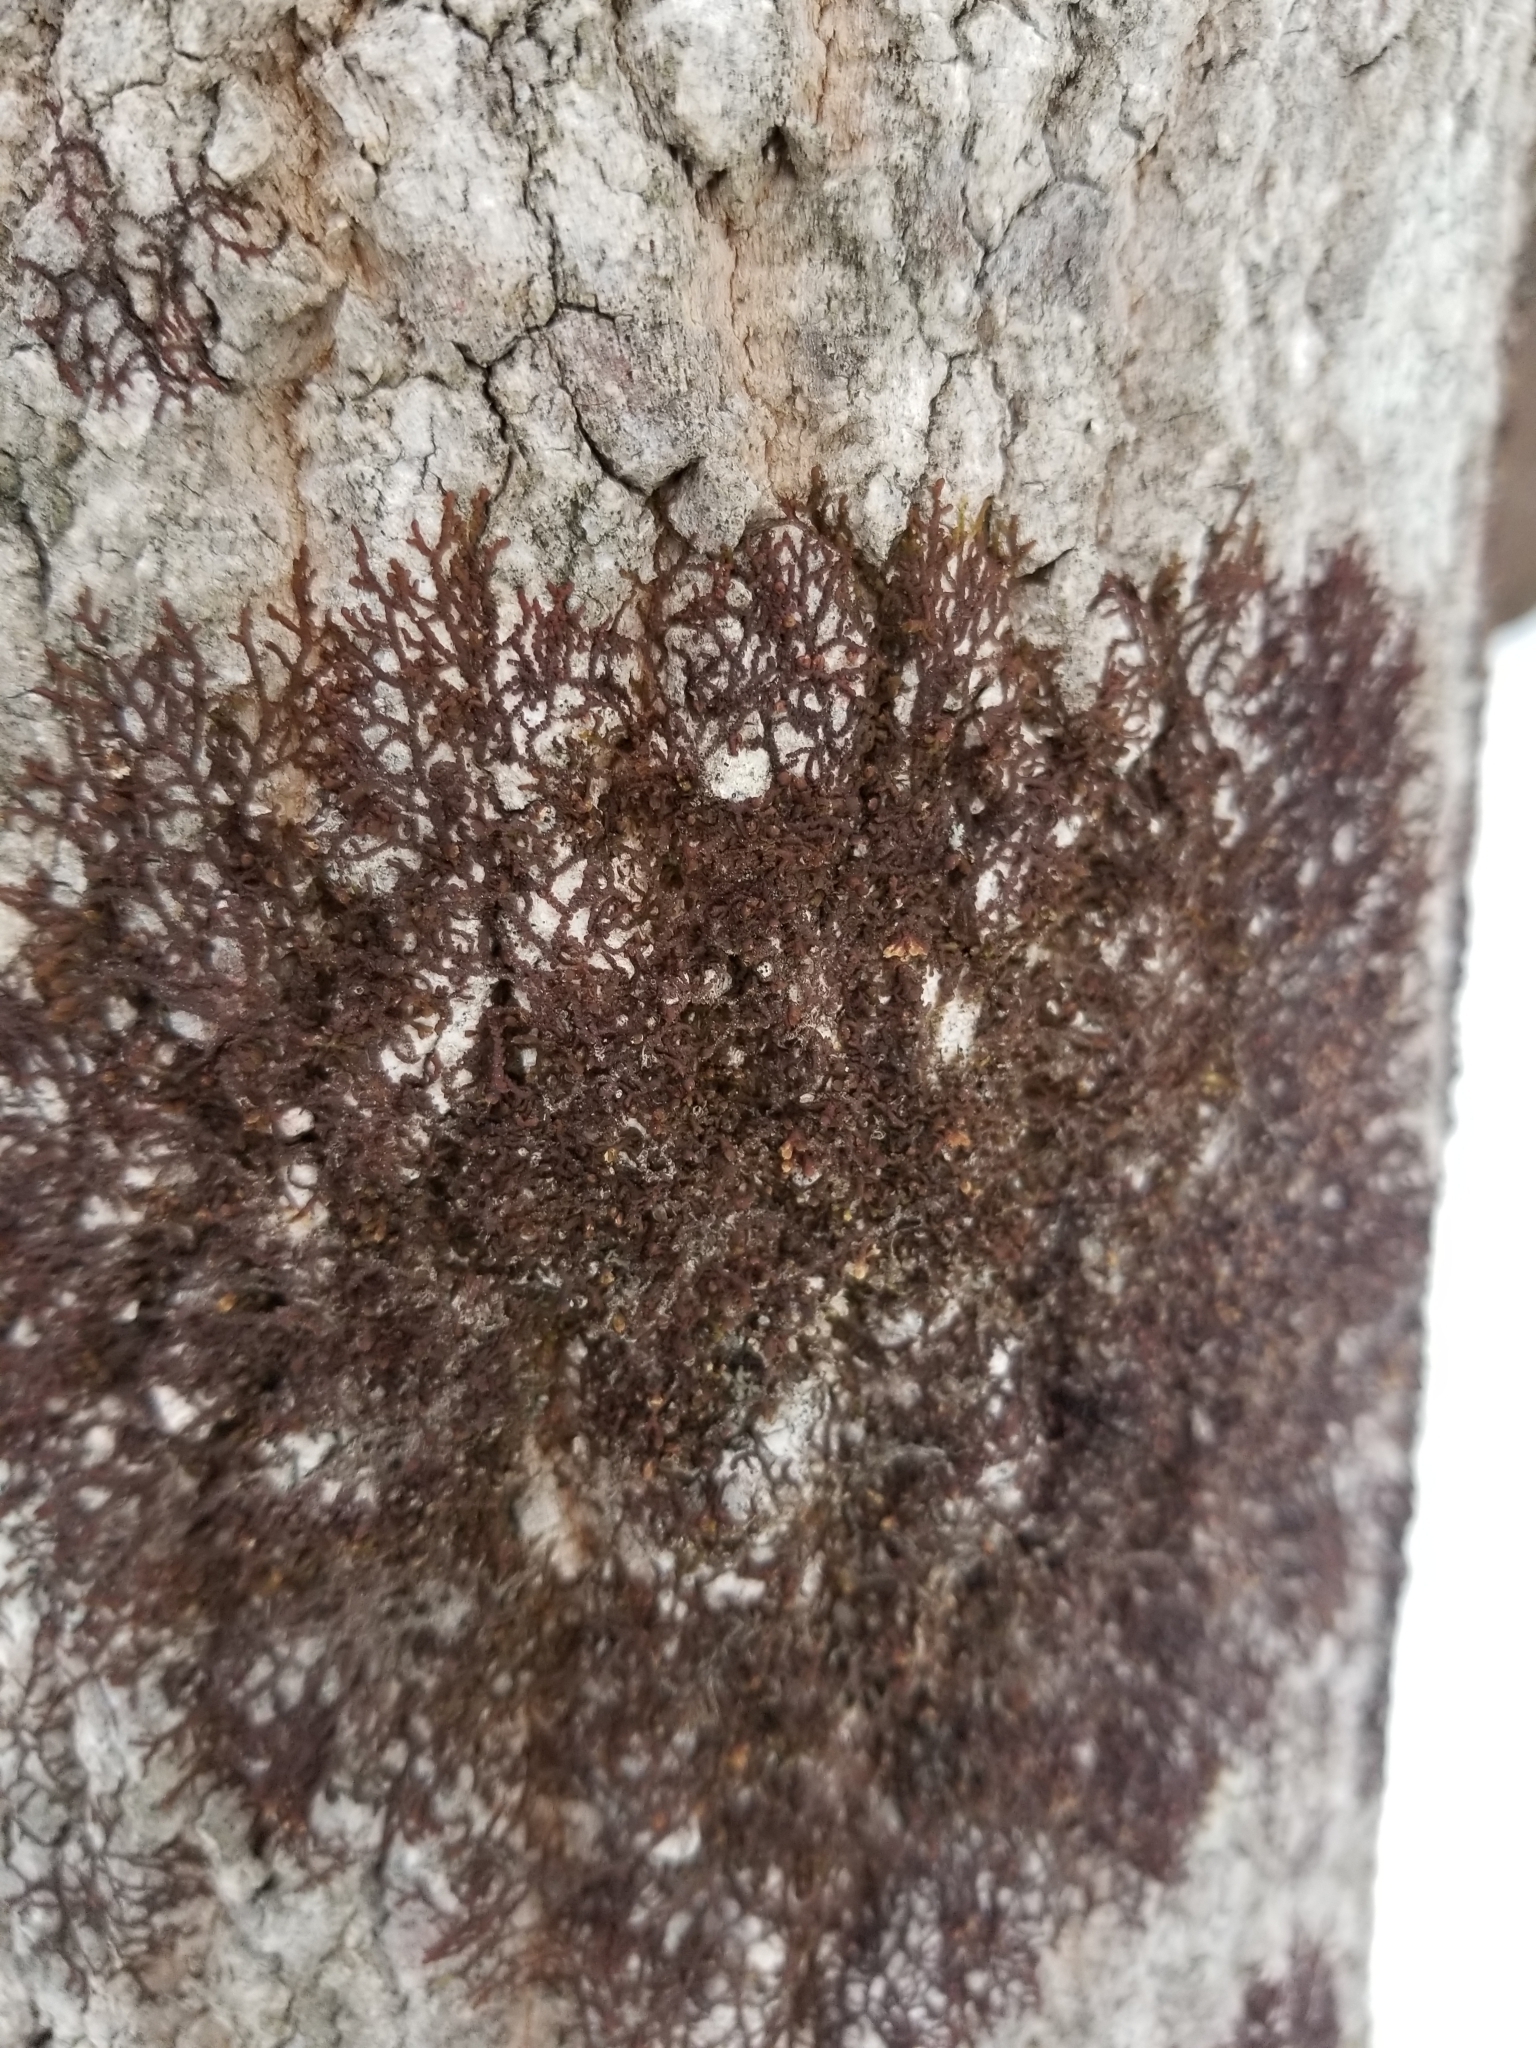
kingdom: Plantae
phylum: Marchantiophyta
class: Jungermanniopsida
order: Porellales
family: Frullaniaceae
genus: Frullania
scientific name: Frullania eboracensis
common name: New york scalewort
